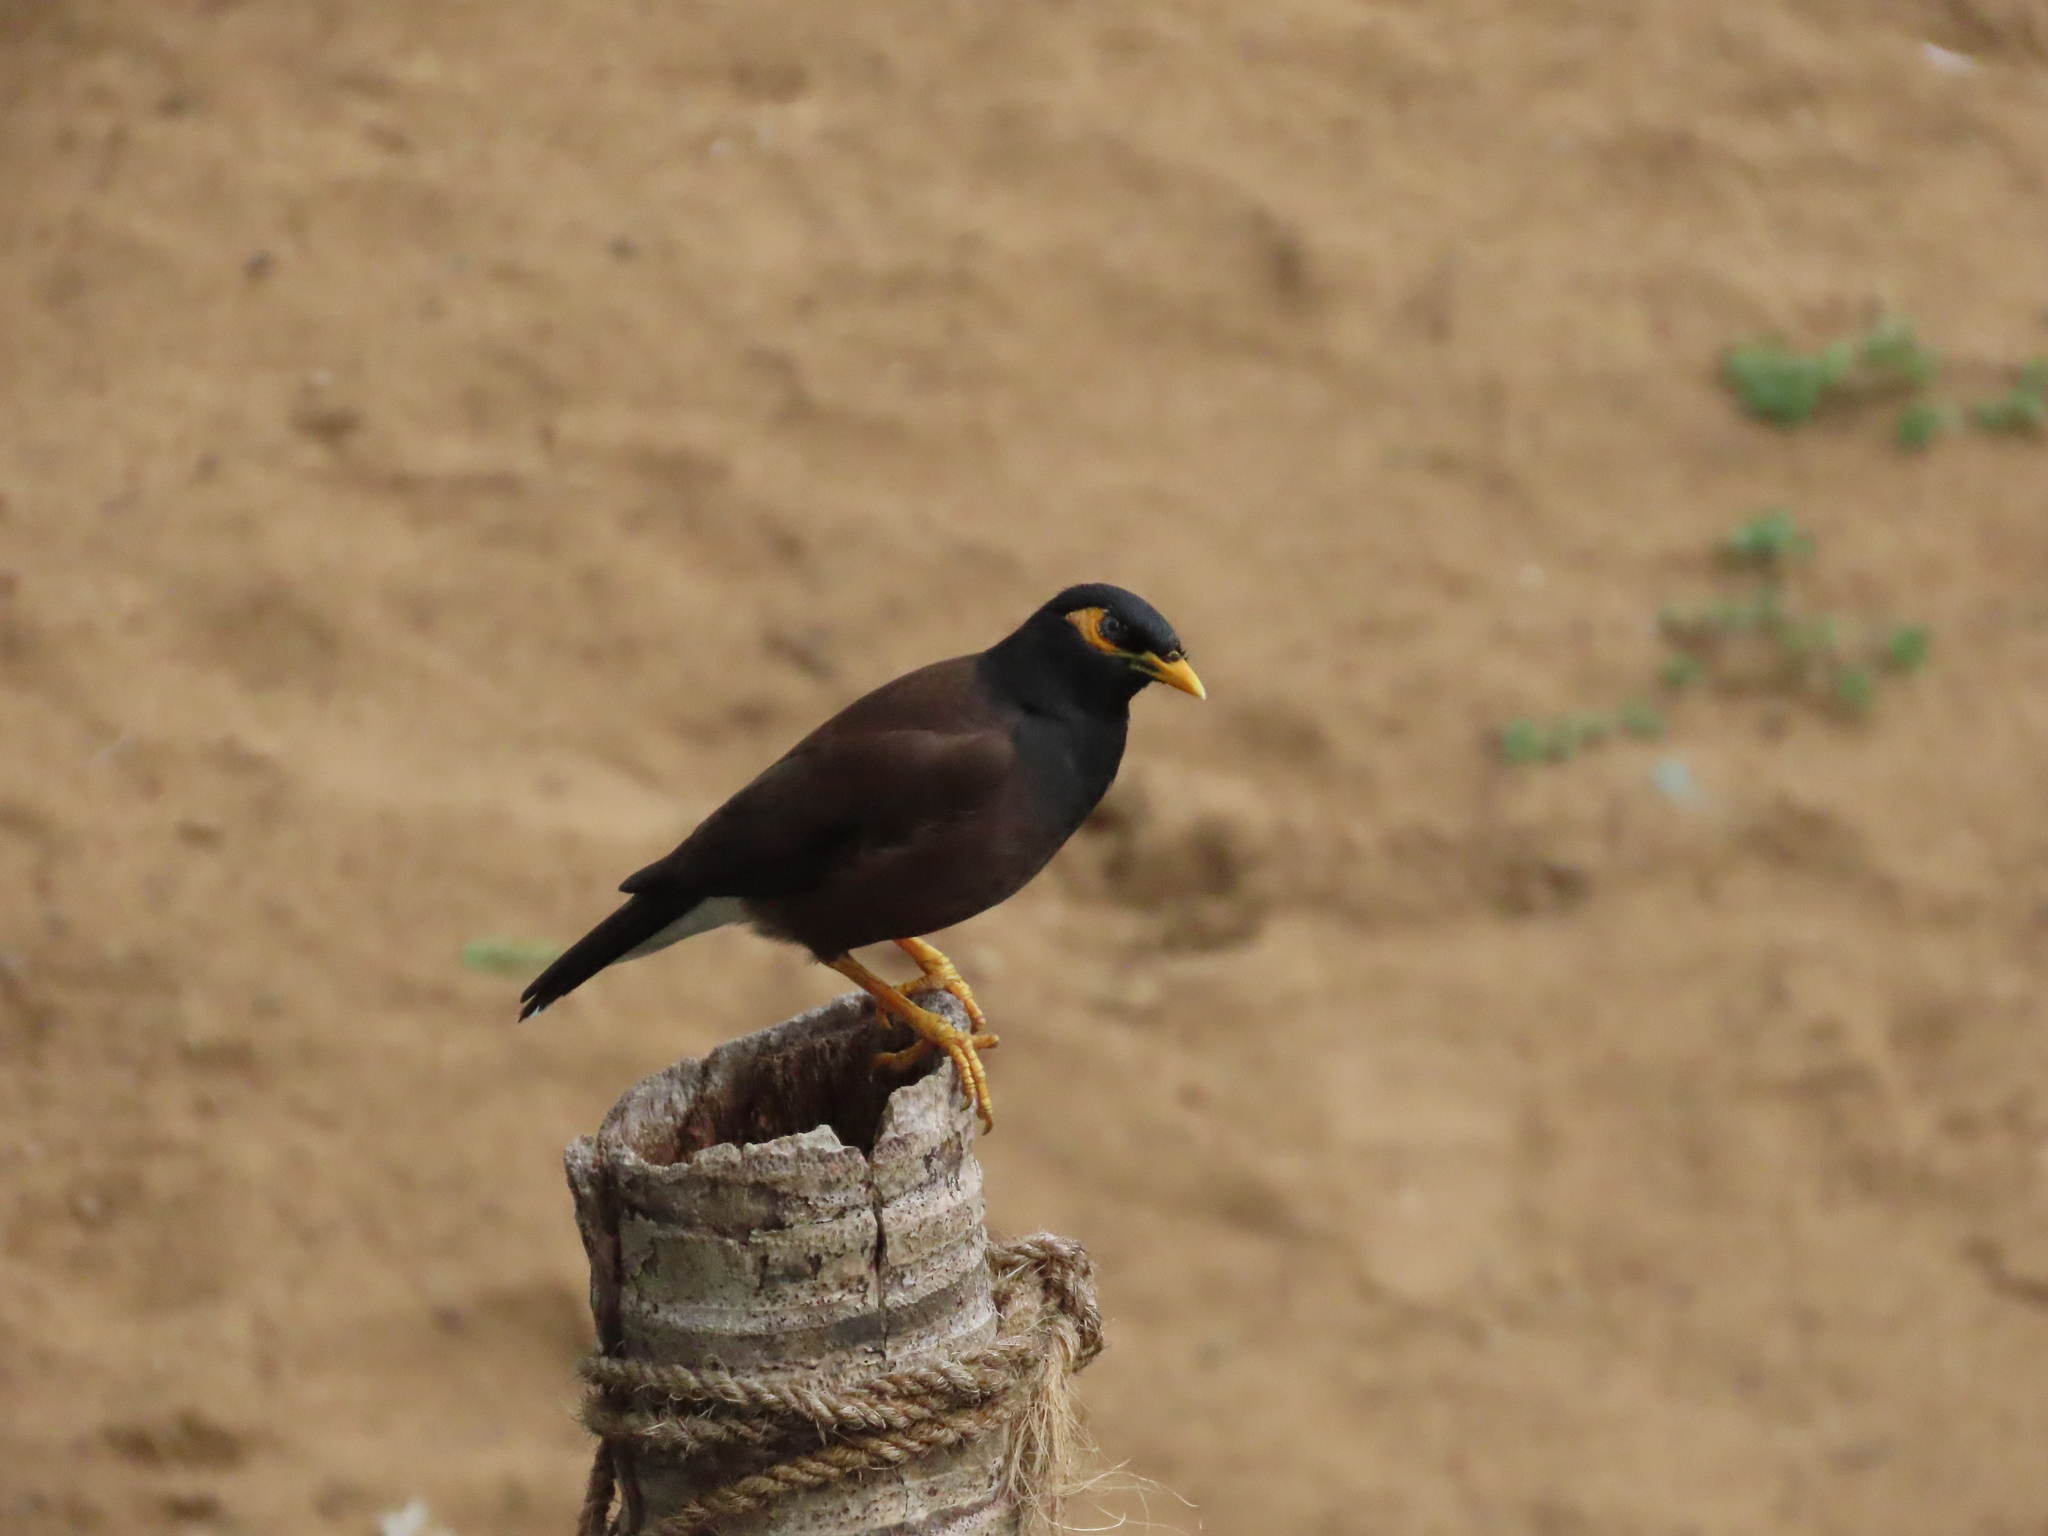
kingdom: Animalia
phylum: Chordata
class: Aves
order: Passeriformes
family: Sturnidae
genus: Acridotheres
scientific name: Acridotheres tristis
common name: Common myna
